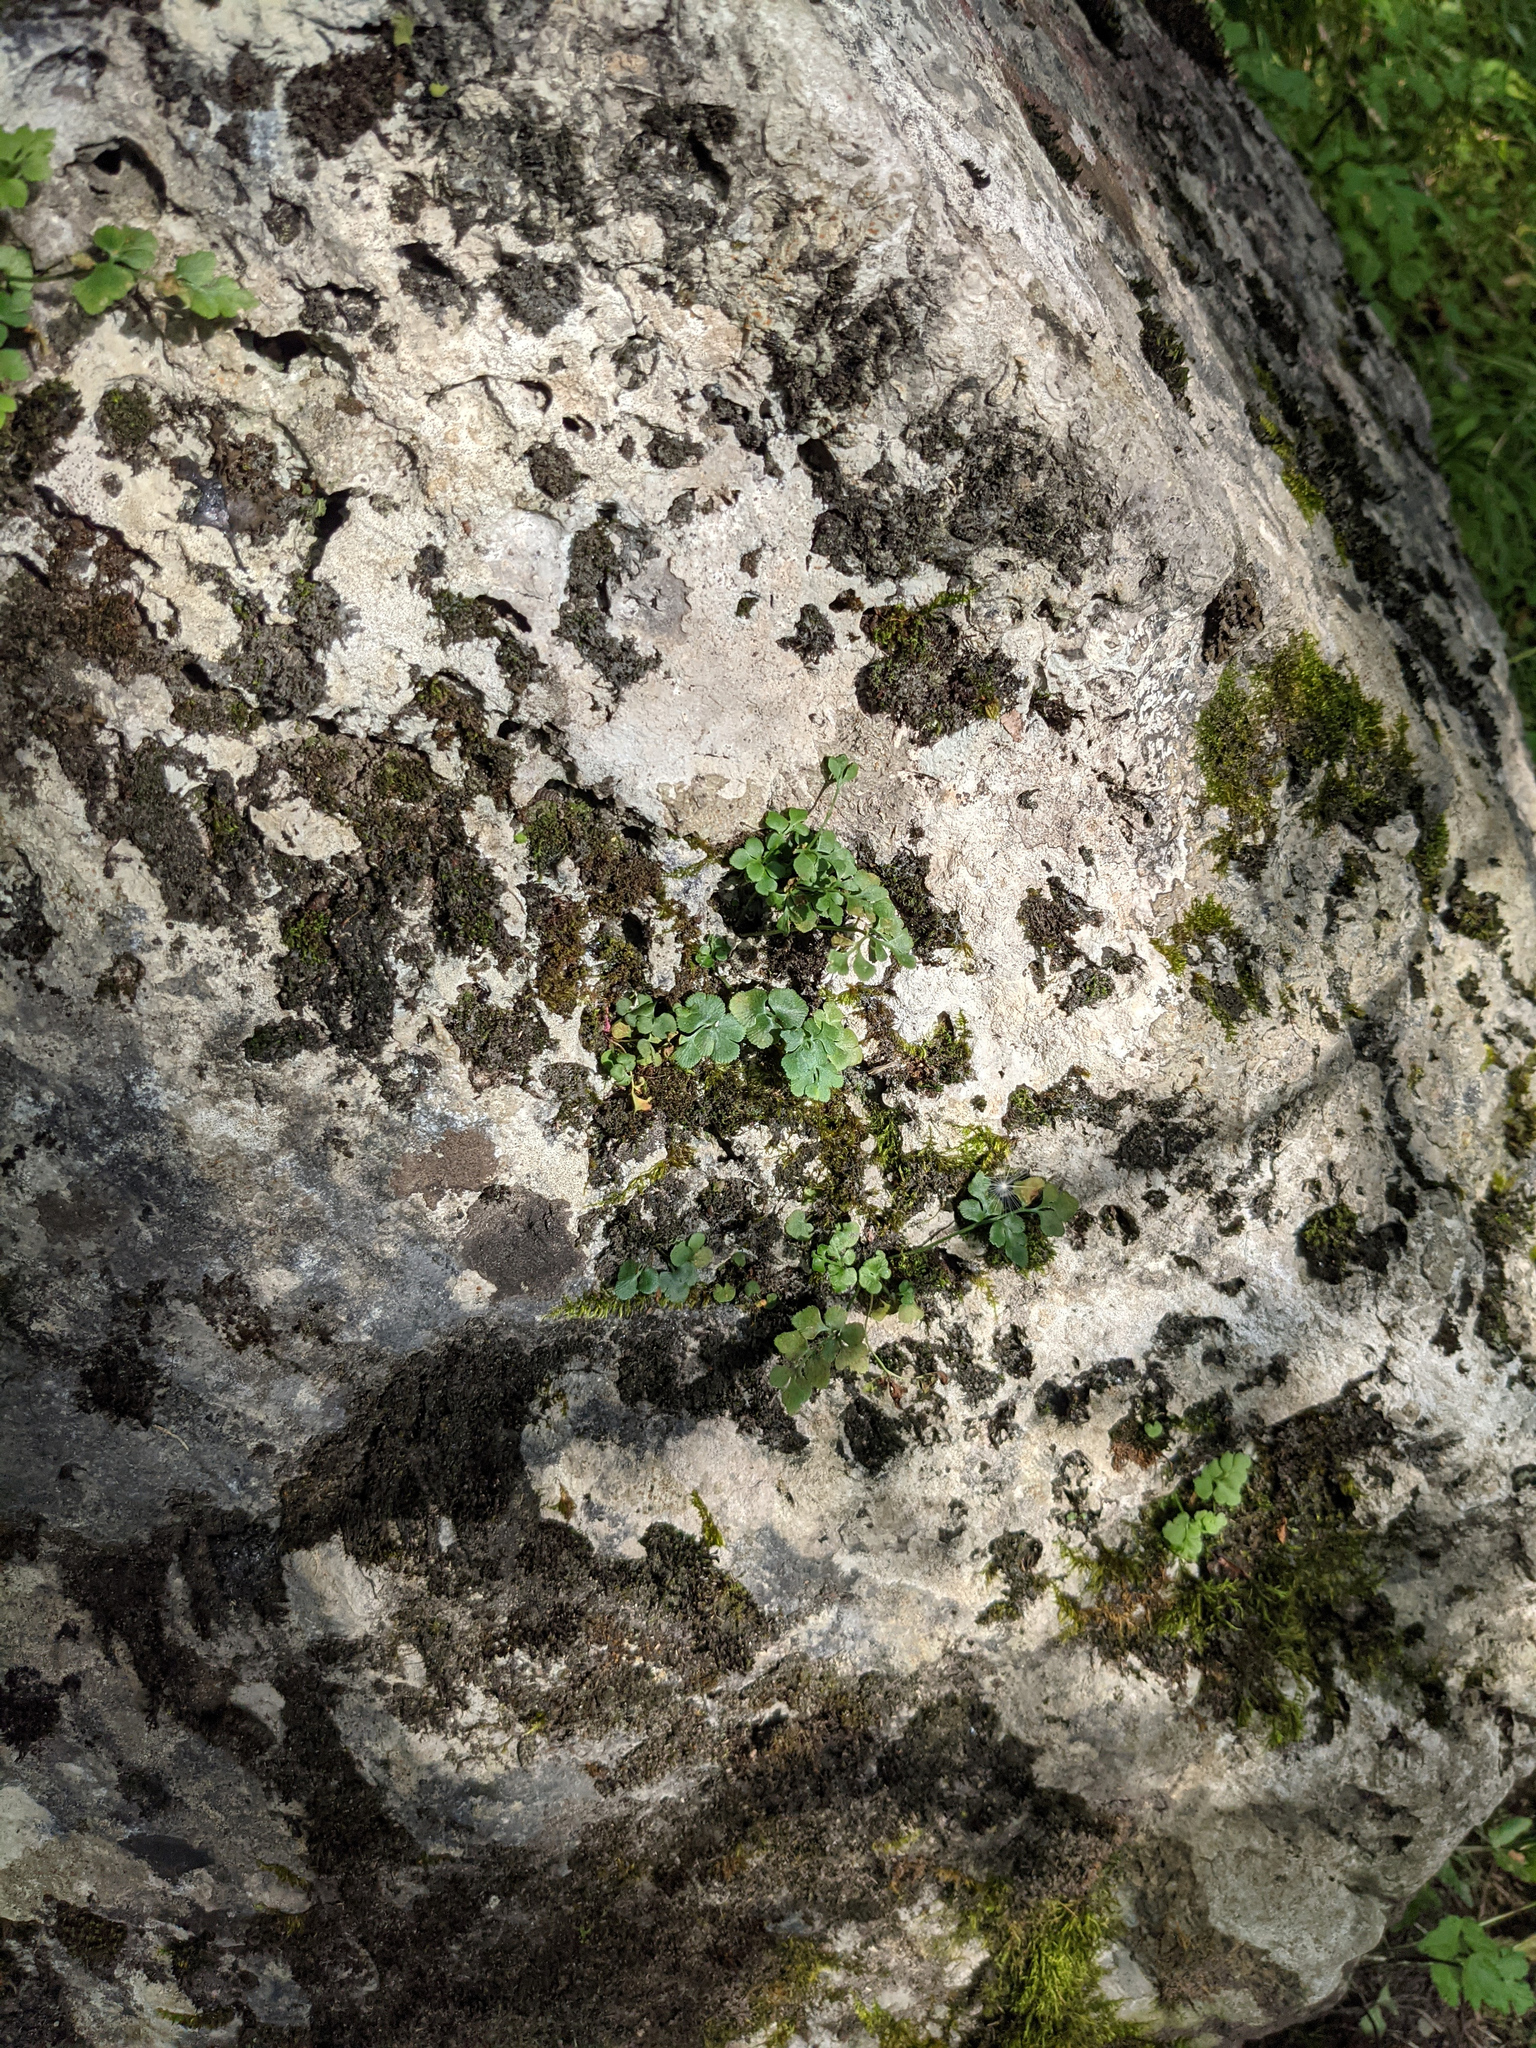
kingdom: Plantae
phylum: Tracheophyta
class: Polypodiopsida
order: Polypodiales
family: Aspleniaceae
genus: Asplenium
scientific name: Asplenium ruta-muraria
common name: Wall-rue
